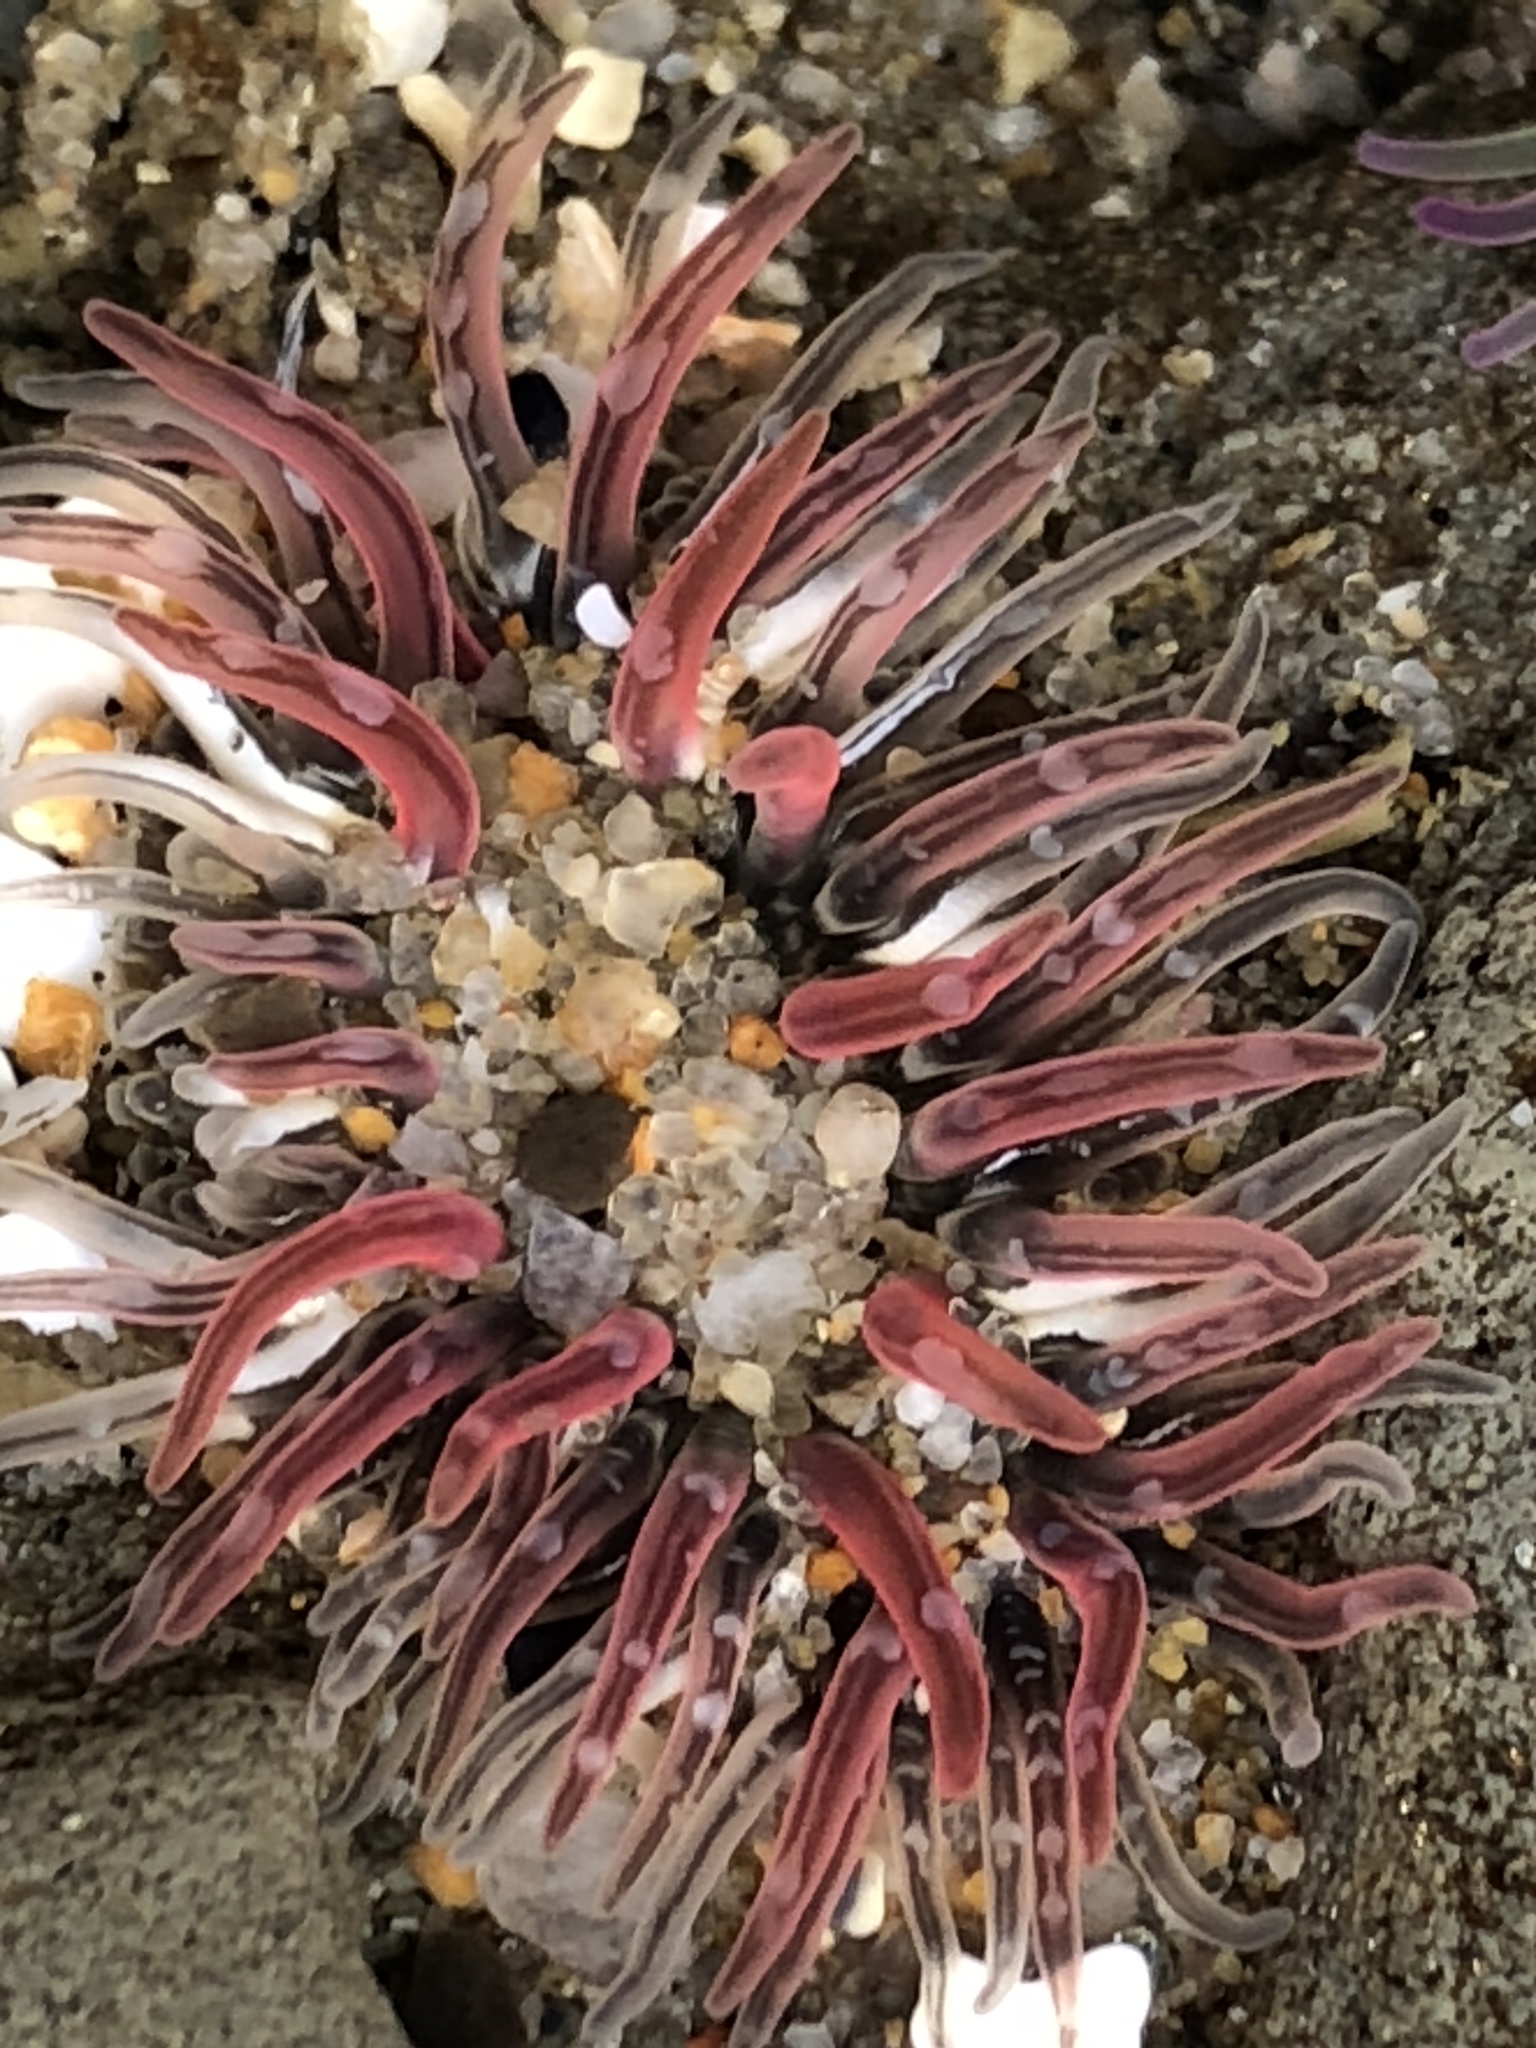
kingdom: Animalia
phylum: Cnidaria
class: Anthozoa
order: Actiniaria
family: Actiniidae
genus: Anthopleura
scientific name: Anthopleura artemisia
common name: Buried sea anemone
